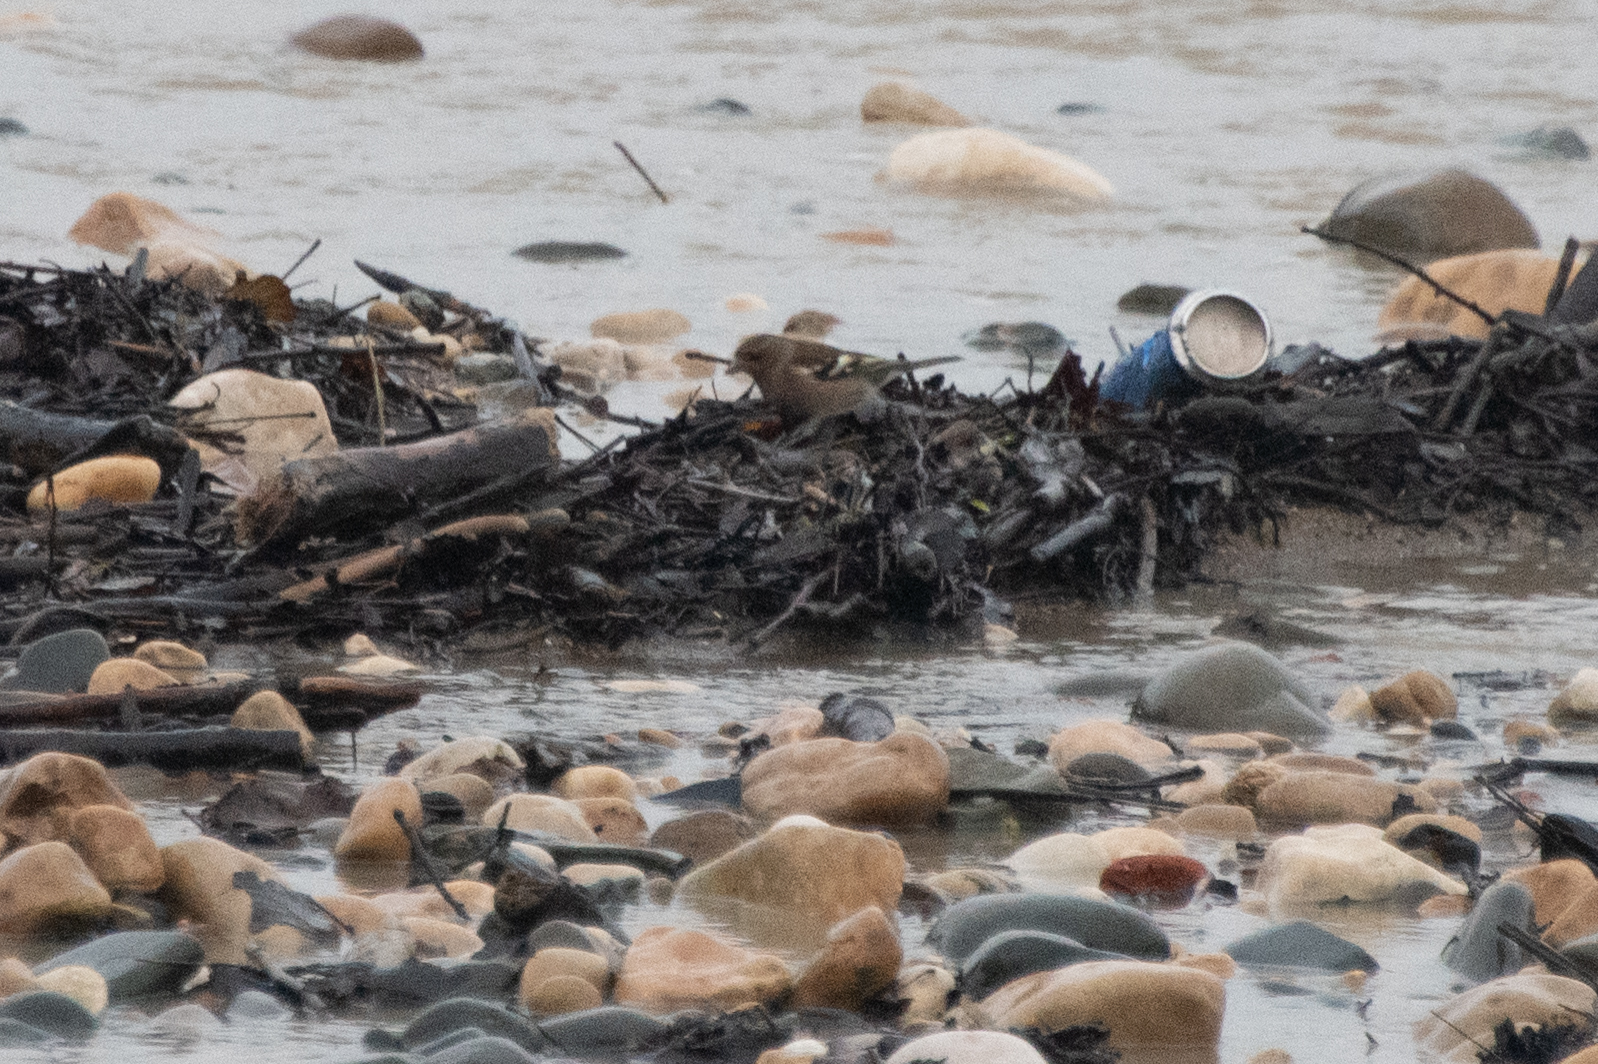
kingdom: Animalia
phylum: Chordata
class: Aves
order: Passeriformes
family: Fringillidae
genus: Fringilla
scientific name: Fringilla coelebs
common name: Common chaffinch
